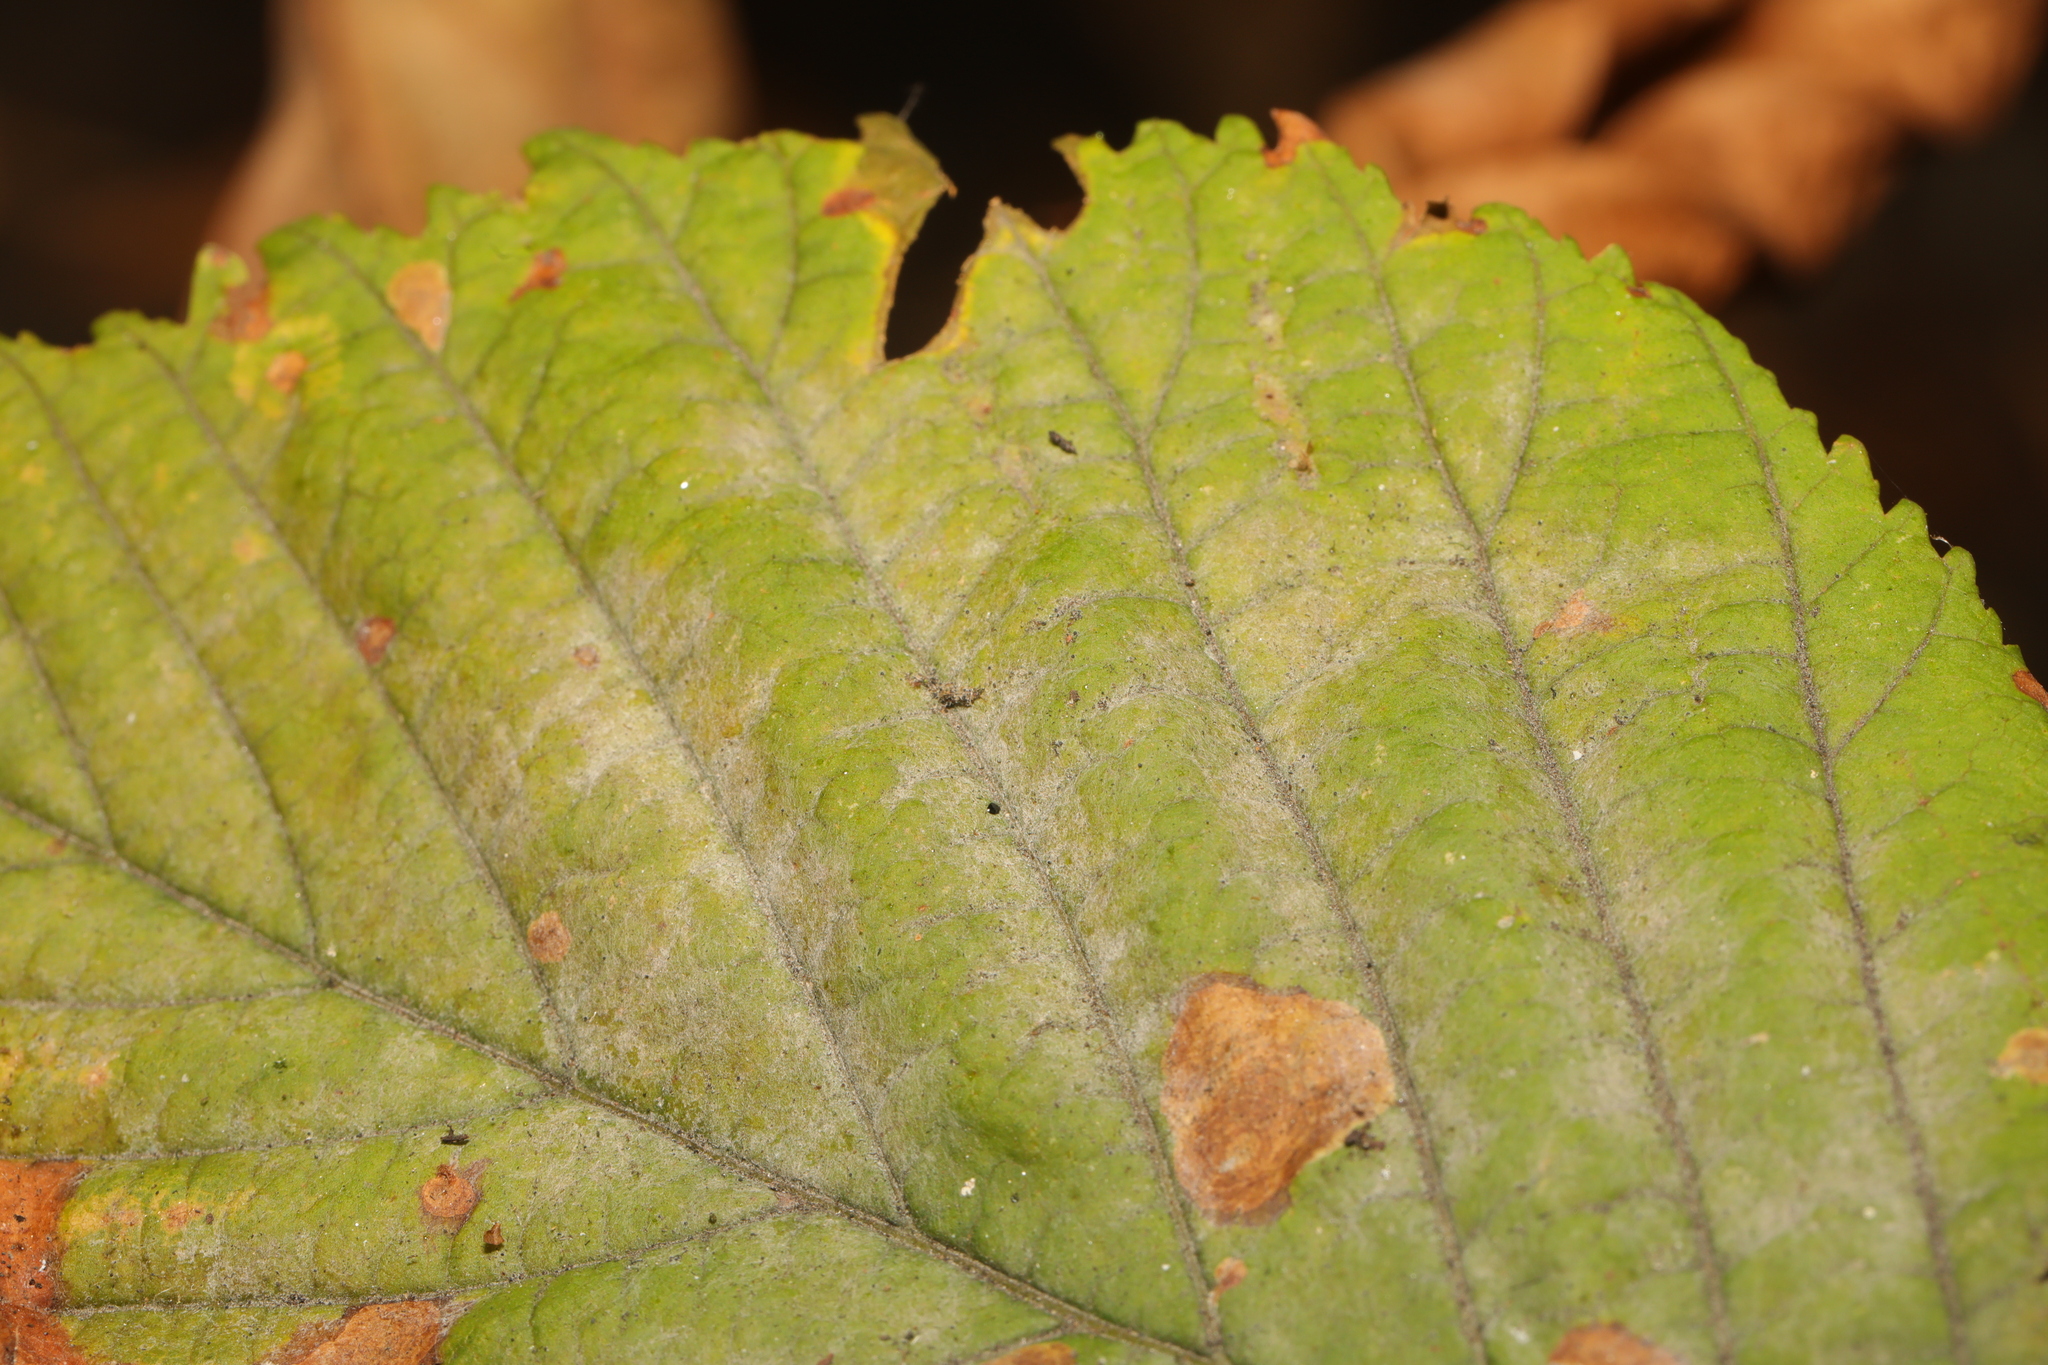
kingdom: Fungi
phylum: Ascomycota
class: Leotiomycetes
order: Helotiales
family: Erysiphaceae
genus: Erysiphe
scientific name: Erysiphe flexuosa
